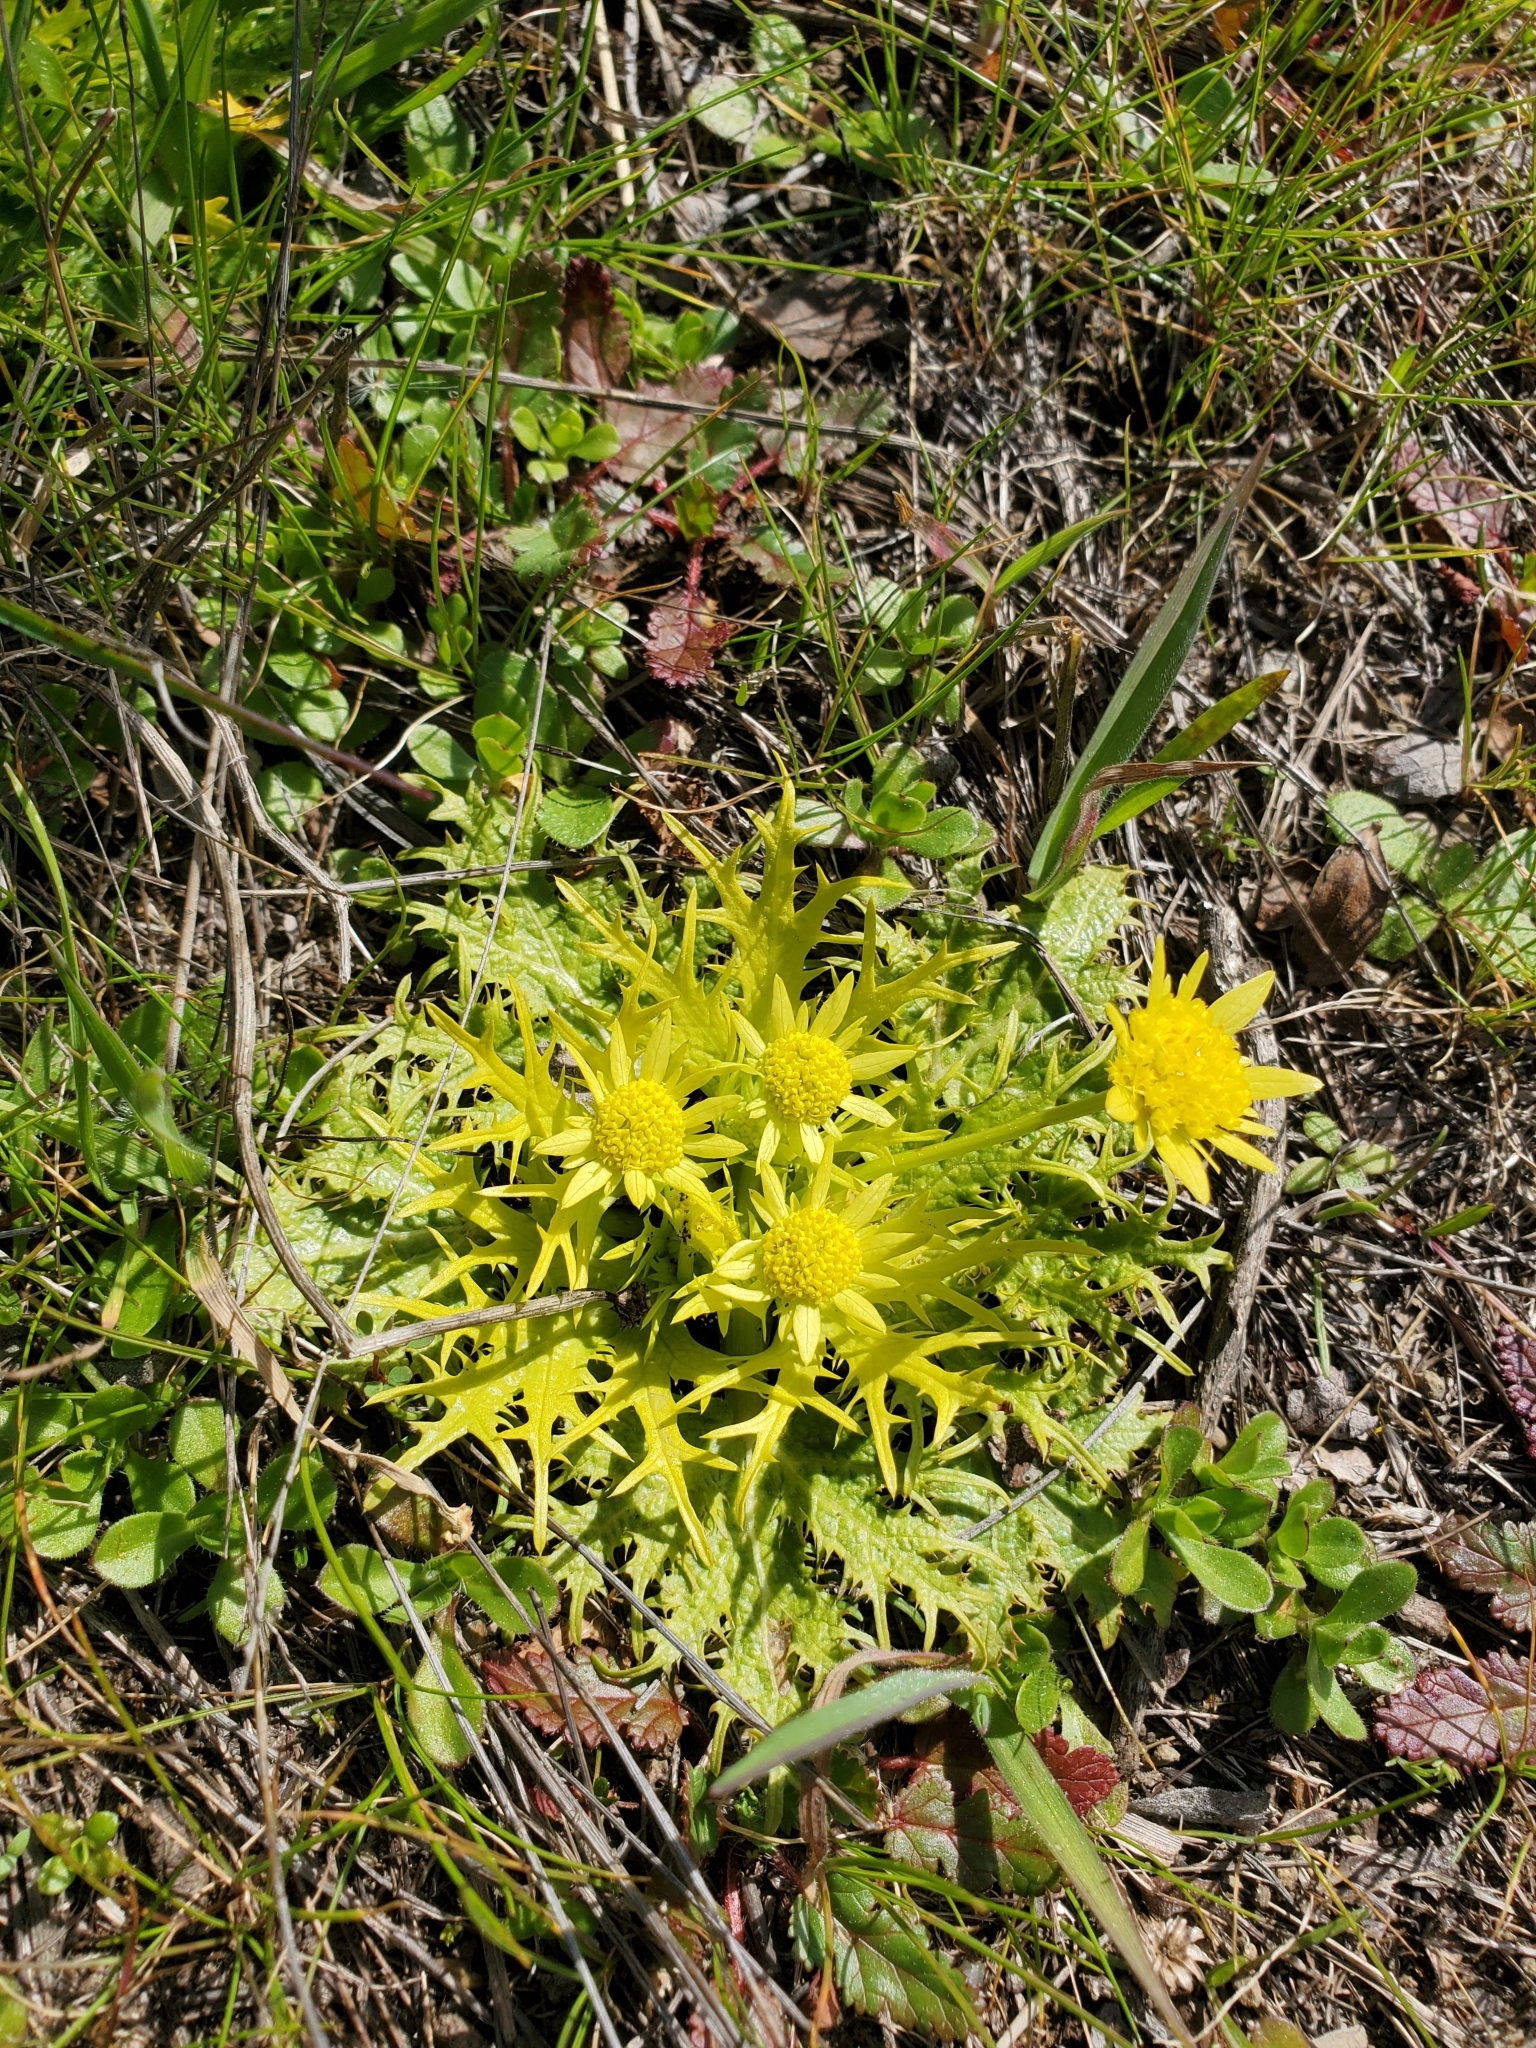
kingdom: Plantae
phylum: Tracheophyta
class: Magnoliopsida
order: Apiales
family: Apiaceae
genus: Sanicula
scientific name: Sanicula arctopoides
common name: Footsteps-of-spring
